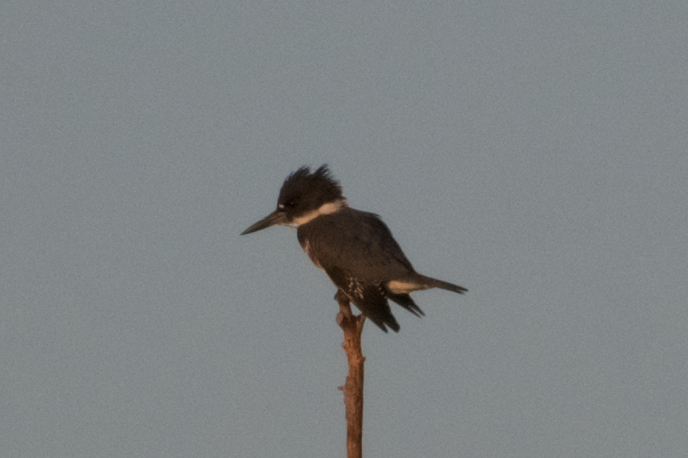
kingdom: Animalia
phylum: Chordata
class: Aves
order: Coraciiformes
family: Alcedinidae
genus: Megaceryle
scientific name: Megaceryle alcyon
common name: Belted kingfisher
